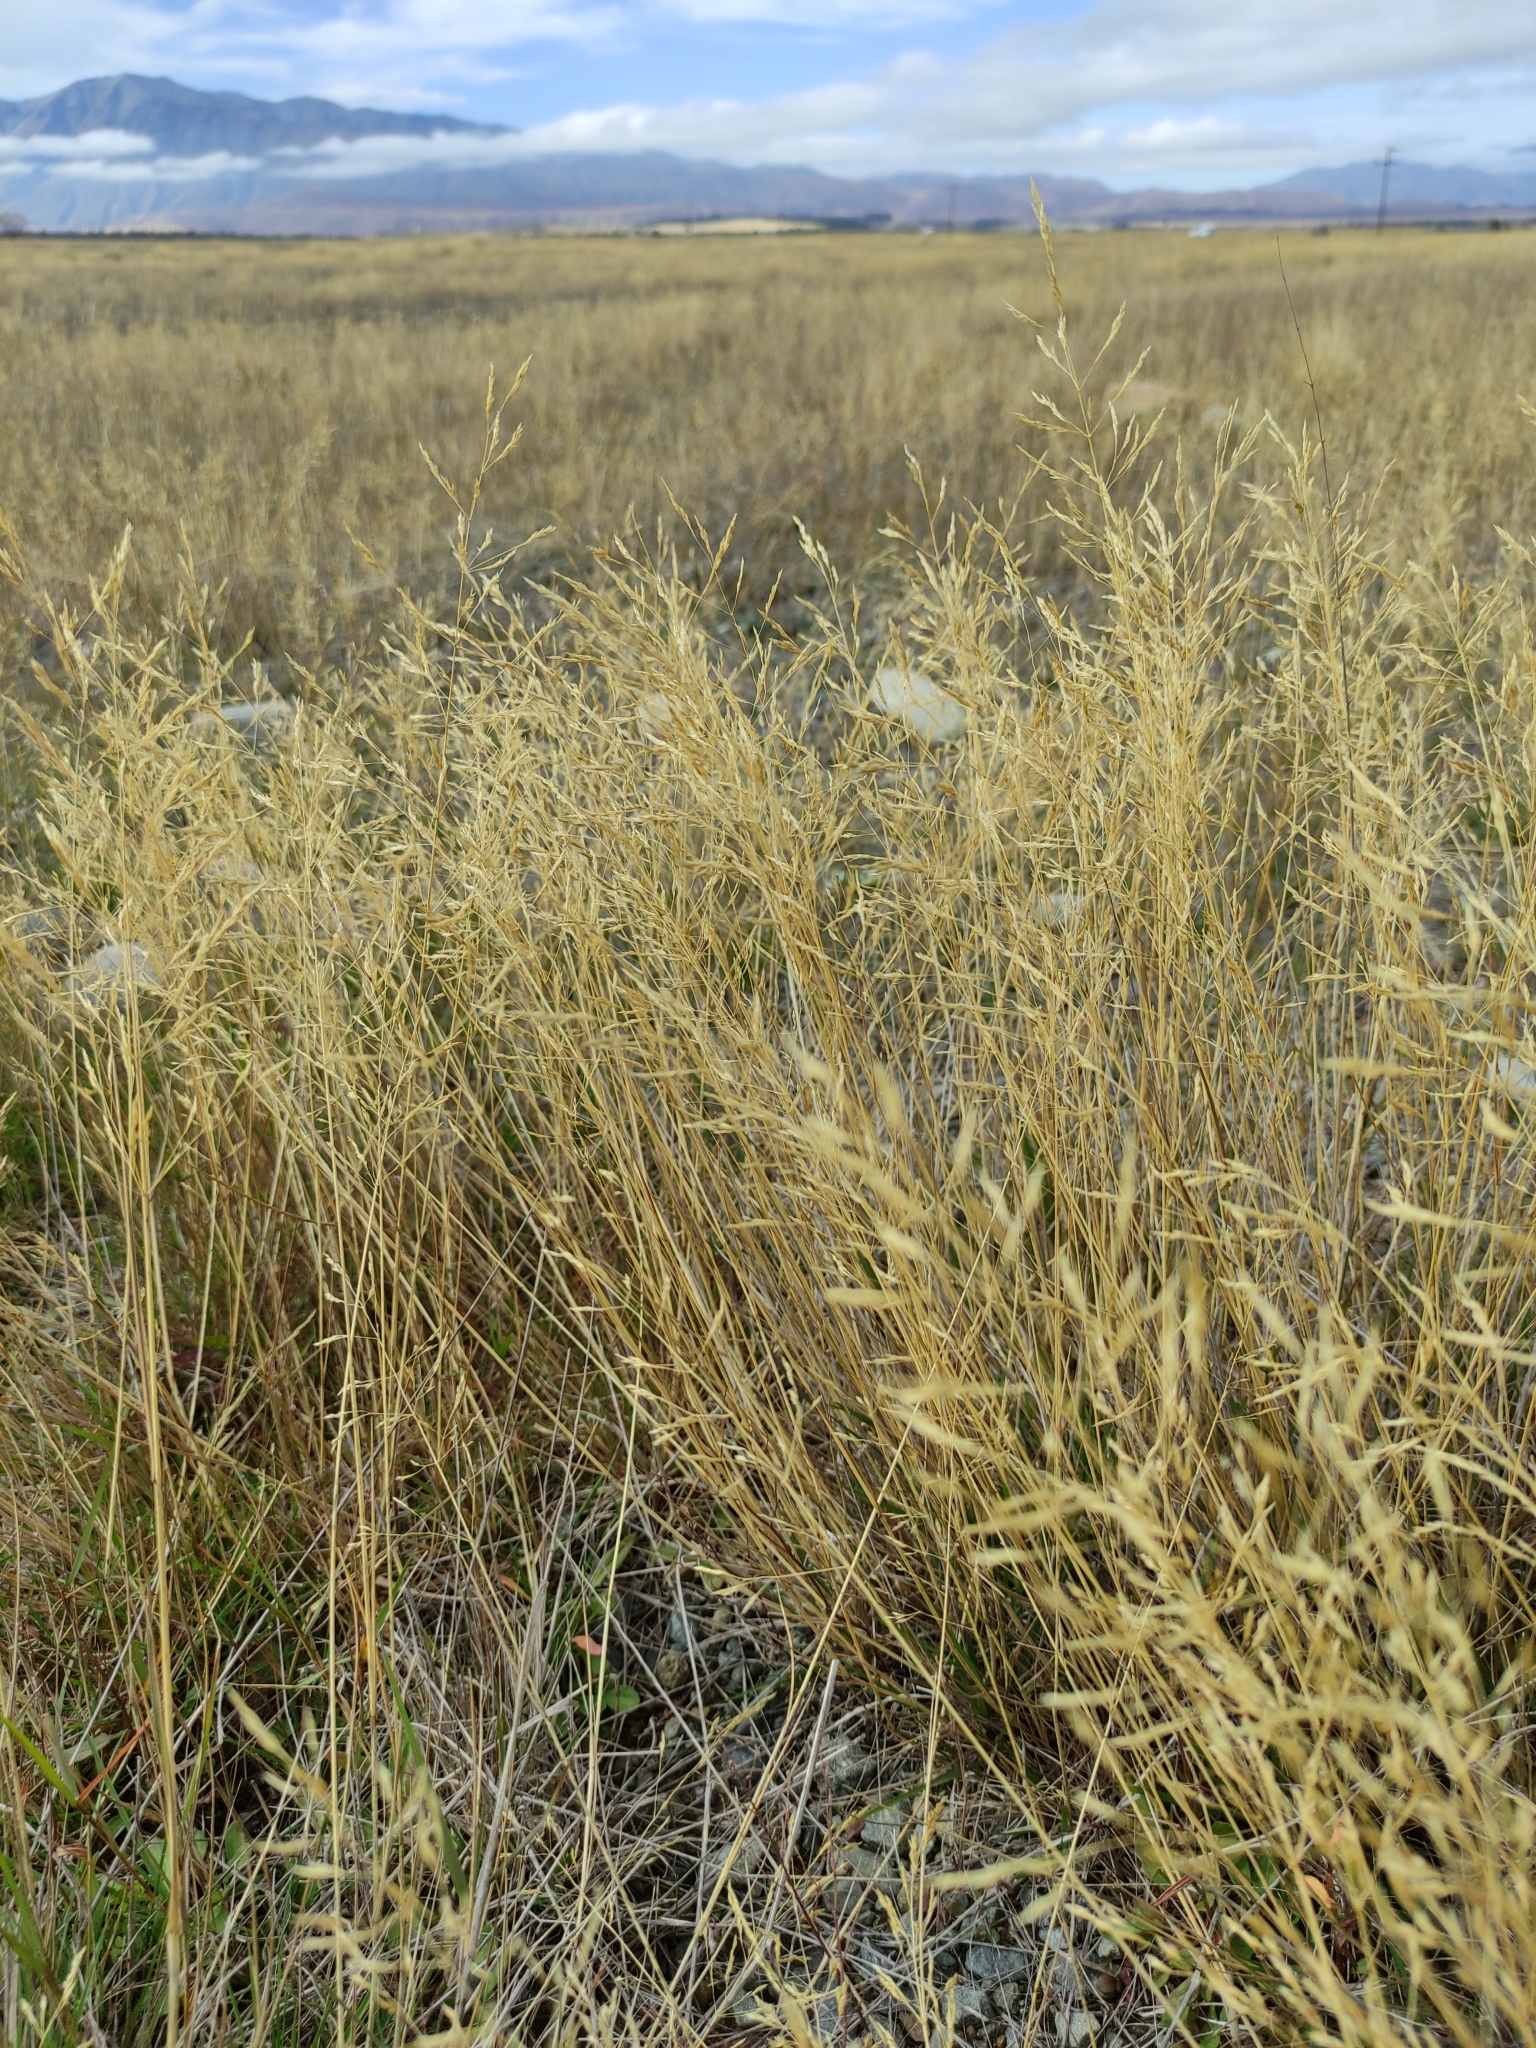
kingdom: Plantae
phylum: Tracheophyta
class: Liliopsida
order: Poales
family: Poaceae
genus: Agrostis
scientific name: Agrostis capillaris
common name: Colonial bentgrass
